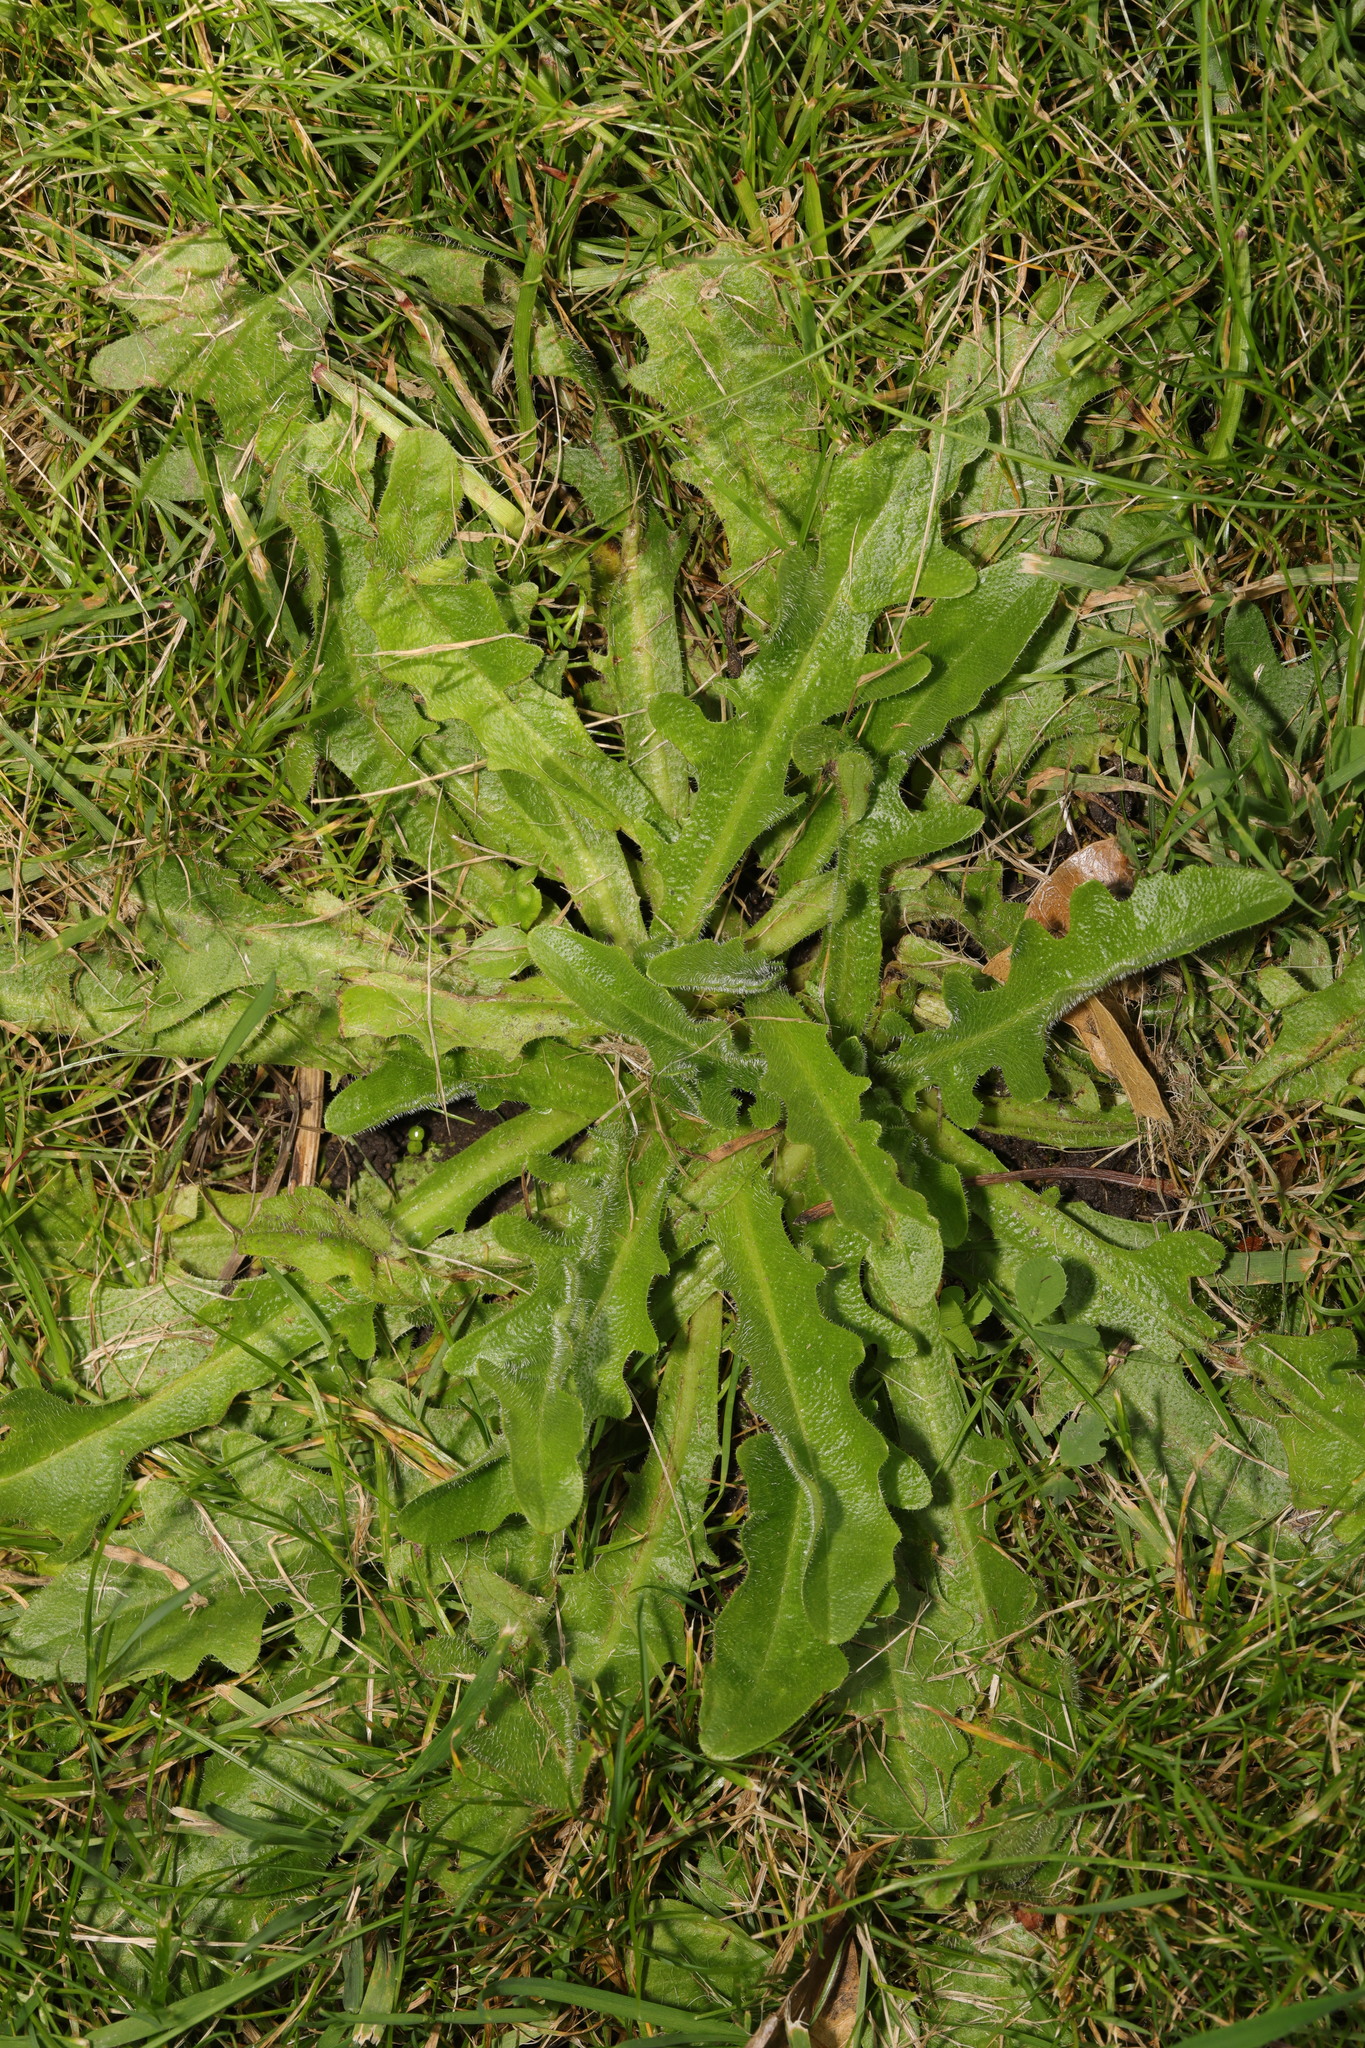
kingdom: Plantae
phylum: Tracheophyta
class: Magnoliopsida
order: Asterales
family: Asteraceae
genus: Hypochaeris
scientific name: Hypochaeris radicata
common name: Flatweed
